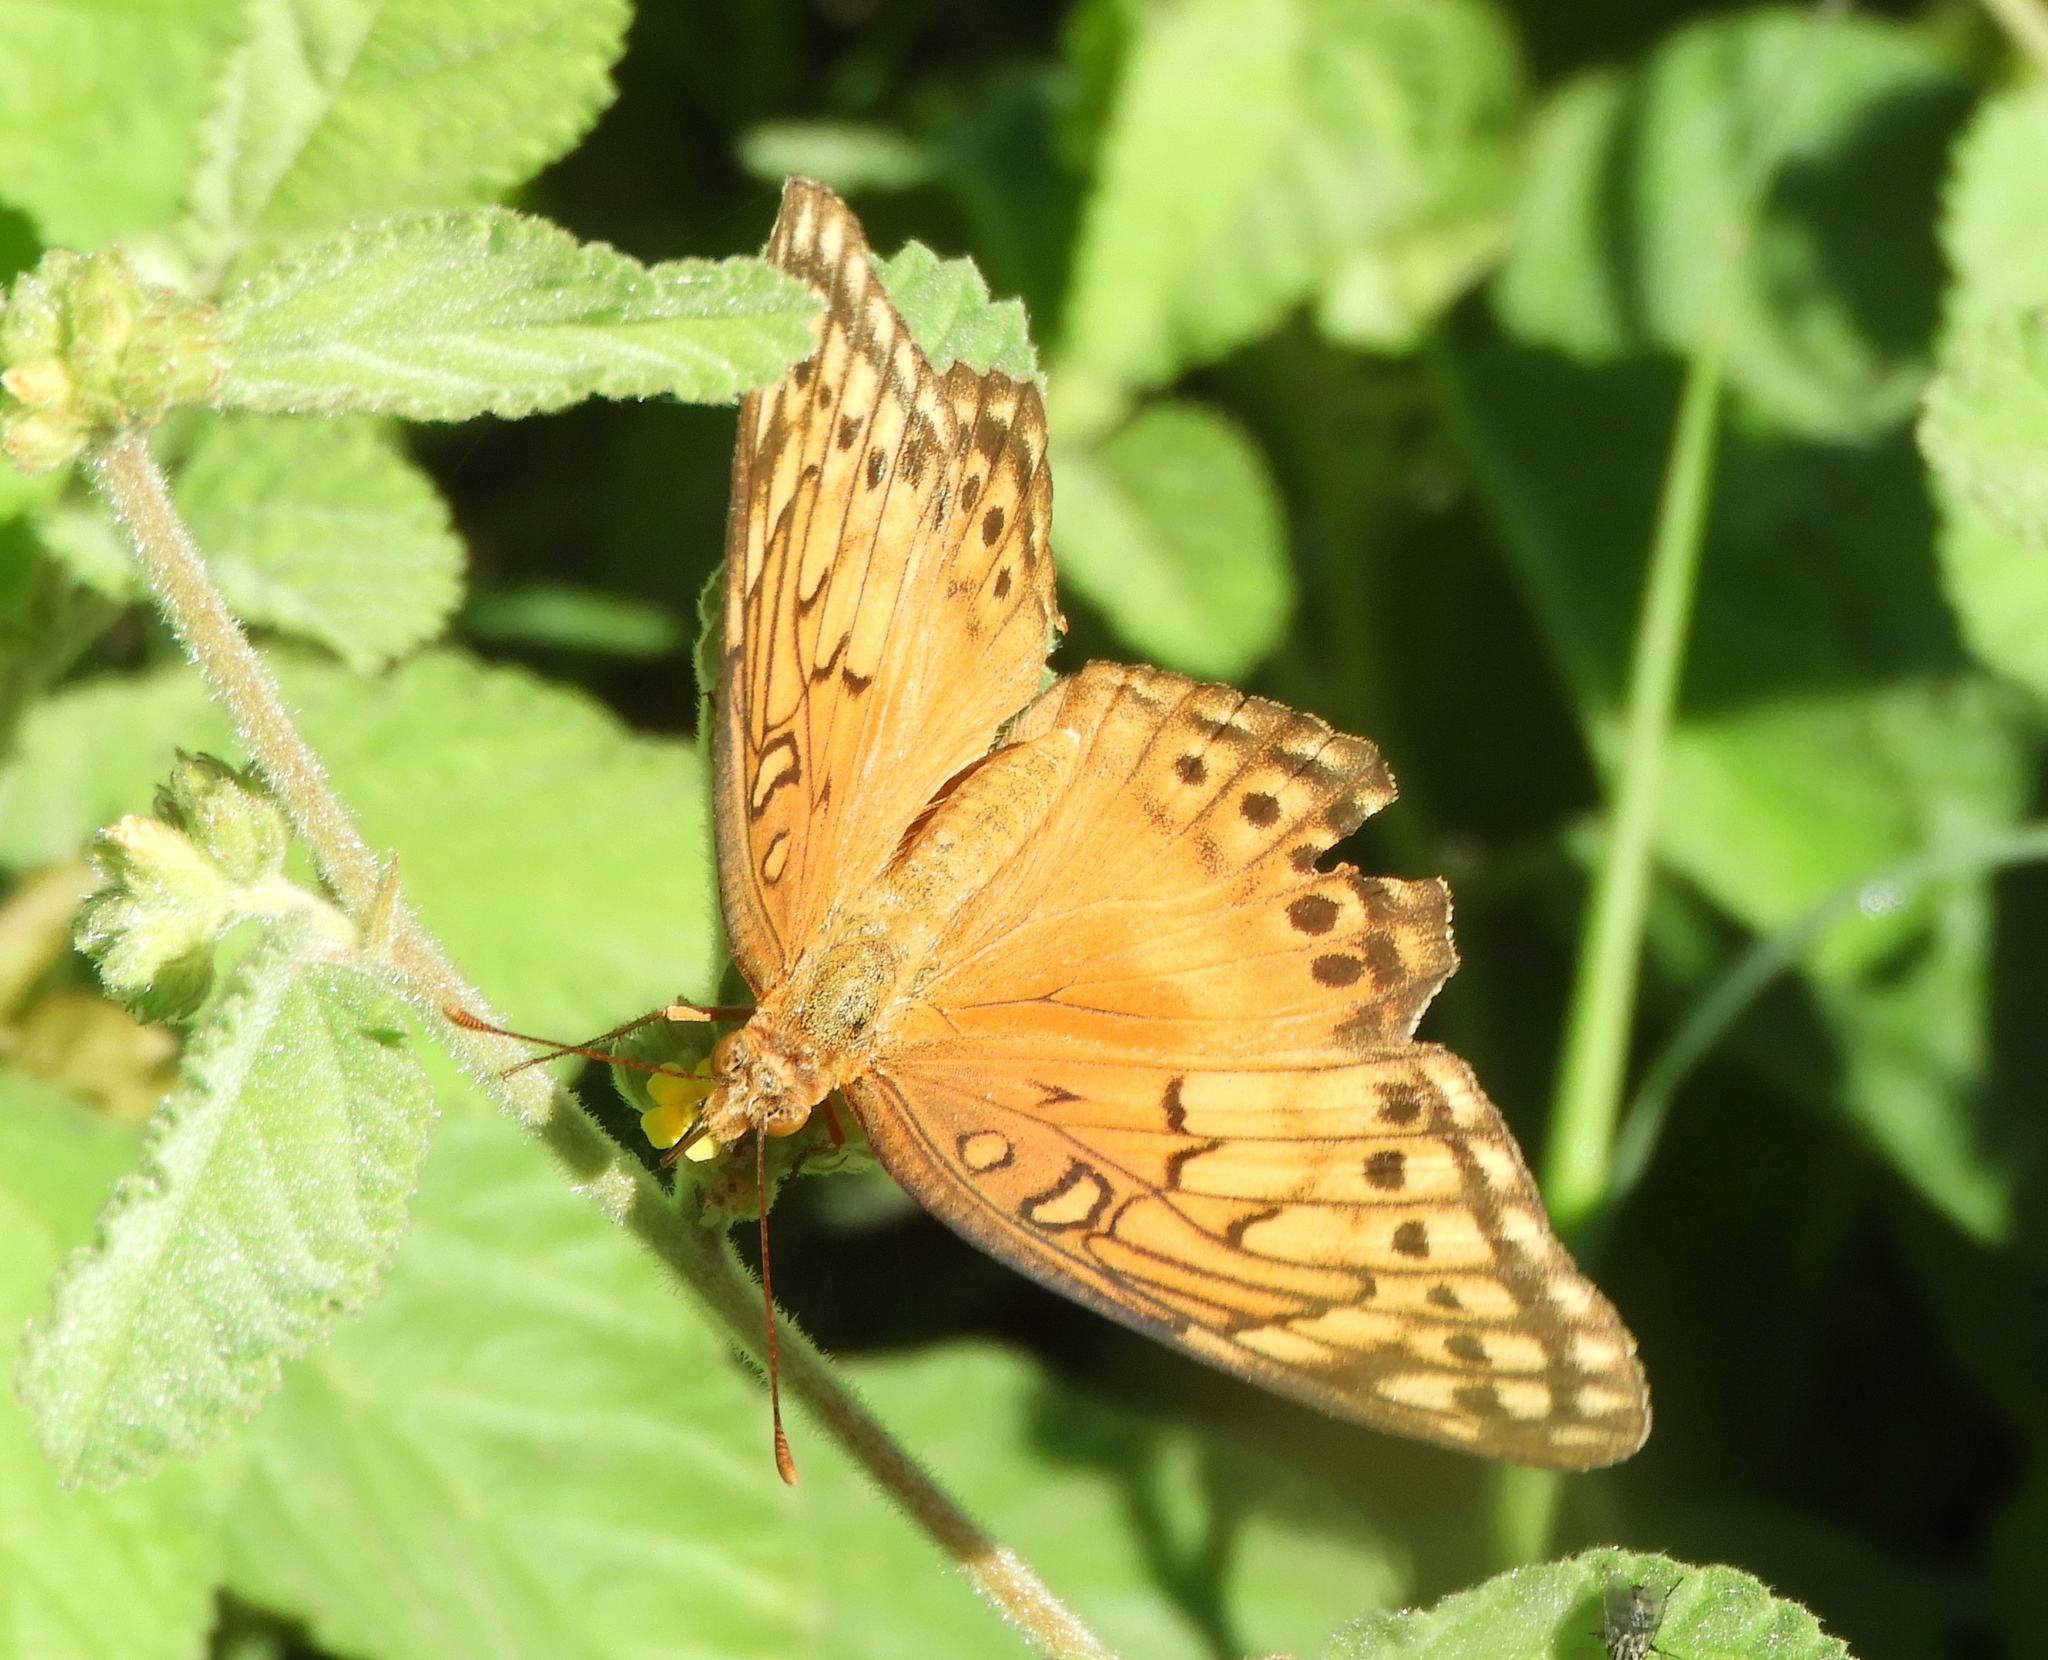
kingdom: Animalia
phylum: Arthropoda
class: Insecta
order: Lepidoptera
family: Nymphalidae
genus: Euptoieta
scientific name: Euptoieta hegesia
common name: Mexican fritillary
